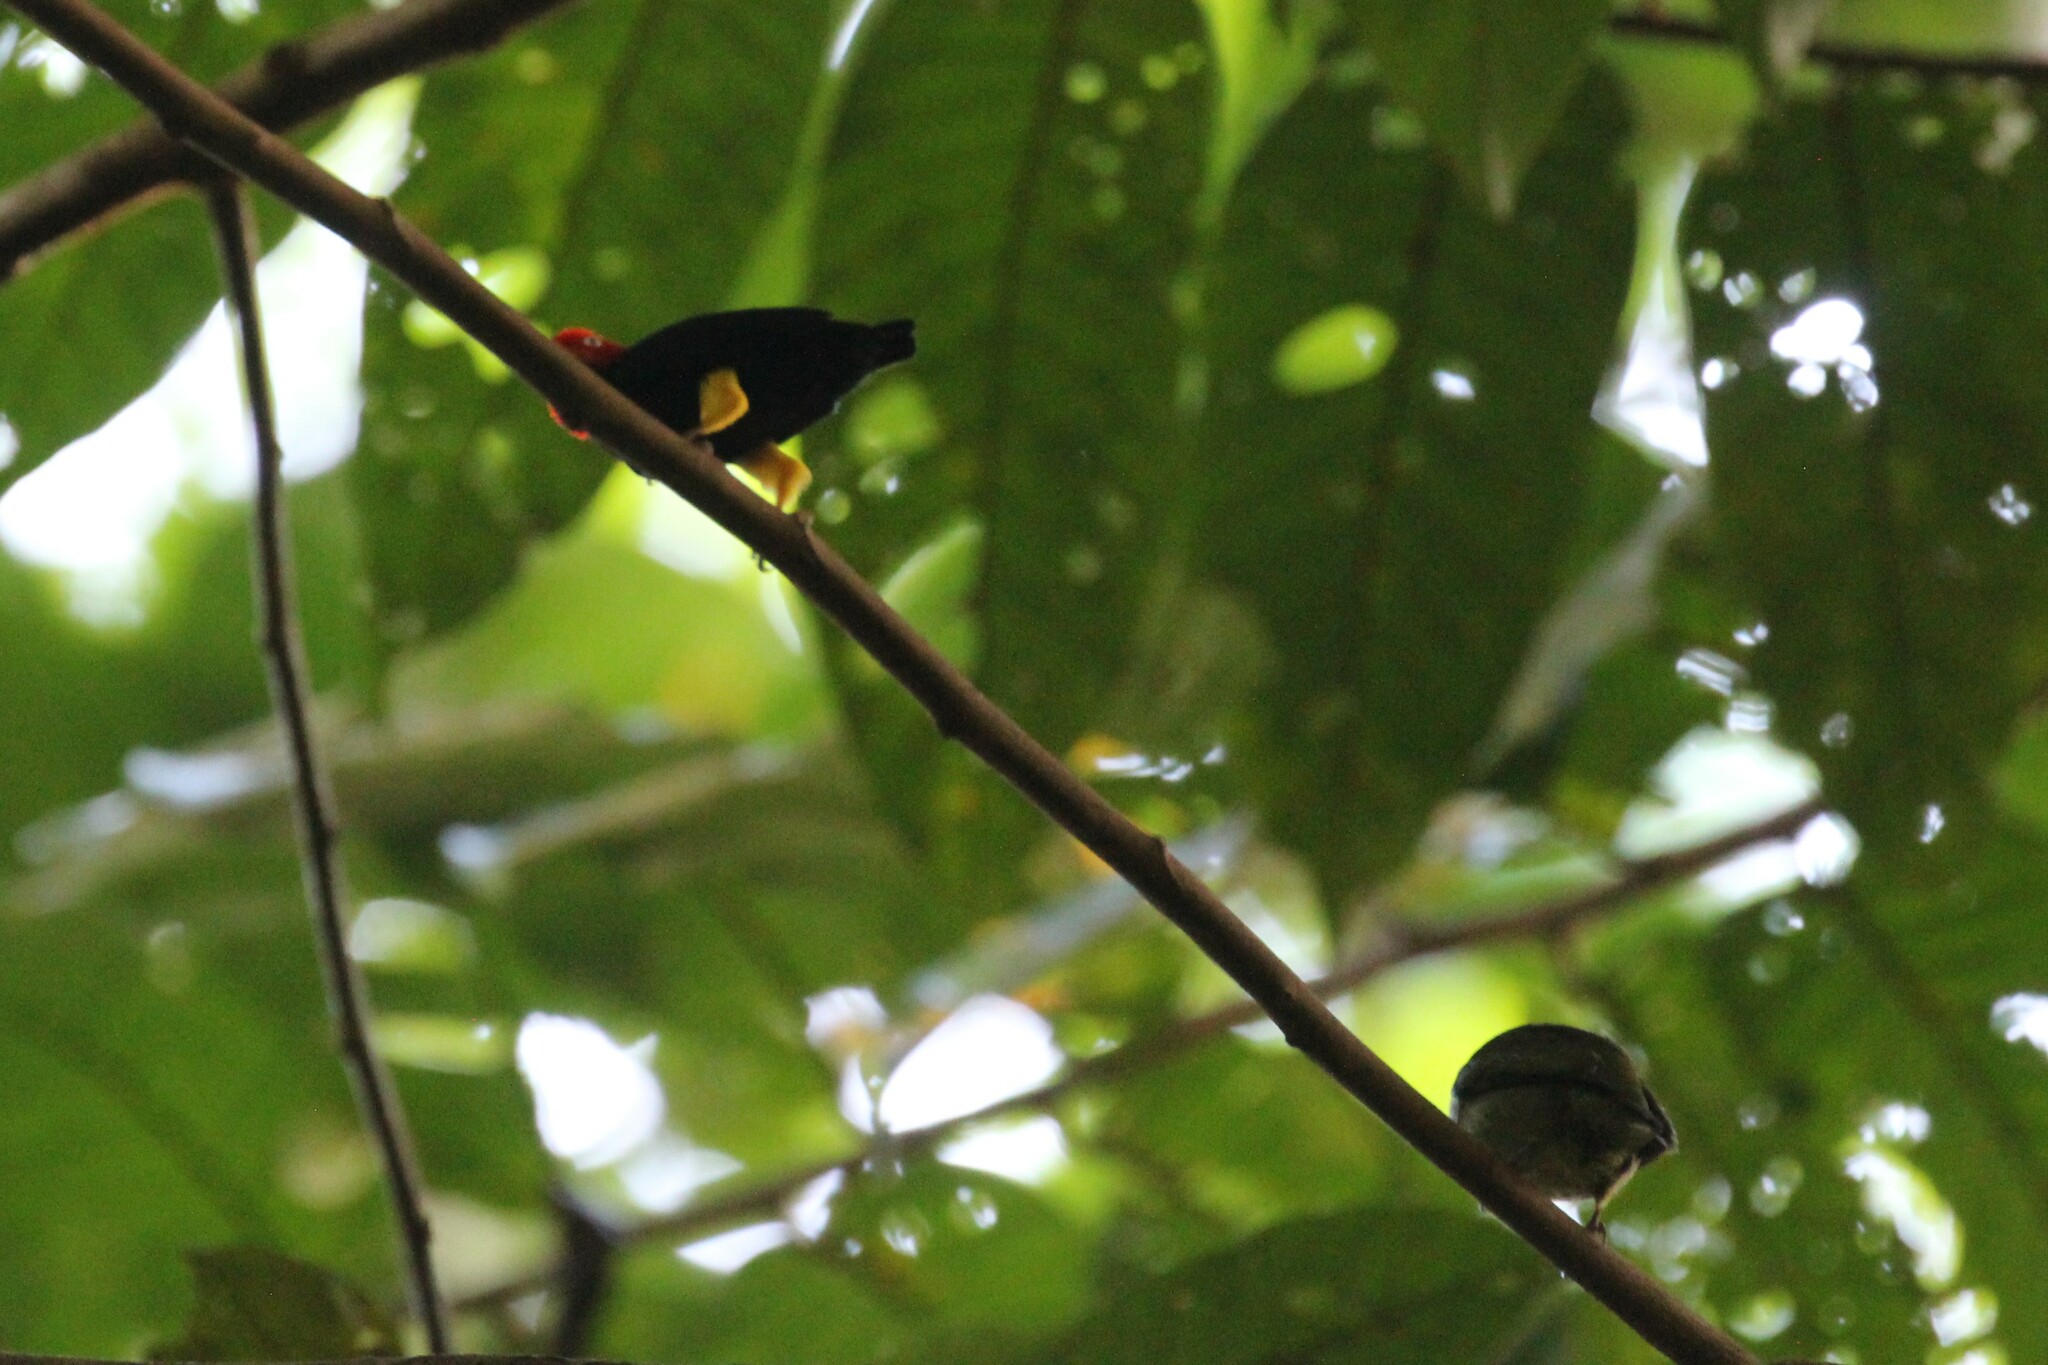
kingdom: Animalia
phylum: Chordata
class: Aves
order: Passeriformes
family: Pipridae
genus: Pipra
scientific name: Pipra mentalis
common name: Red-capped manakin
